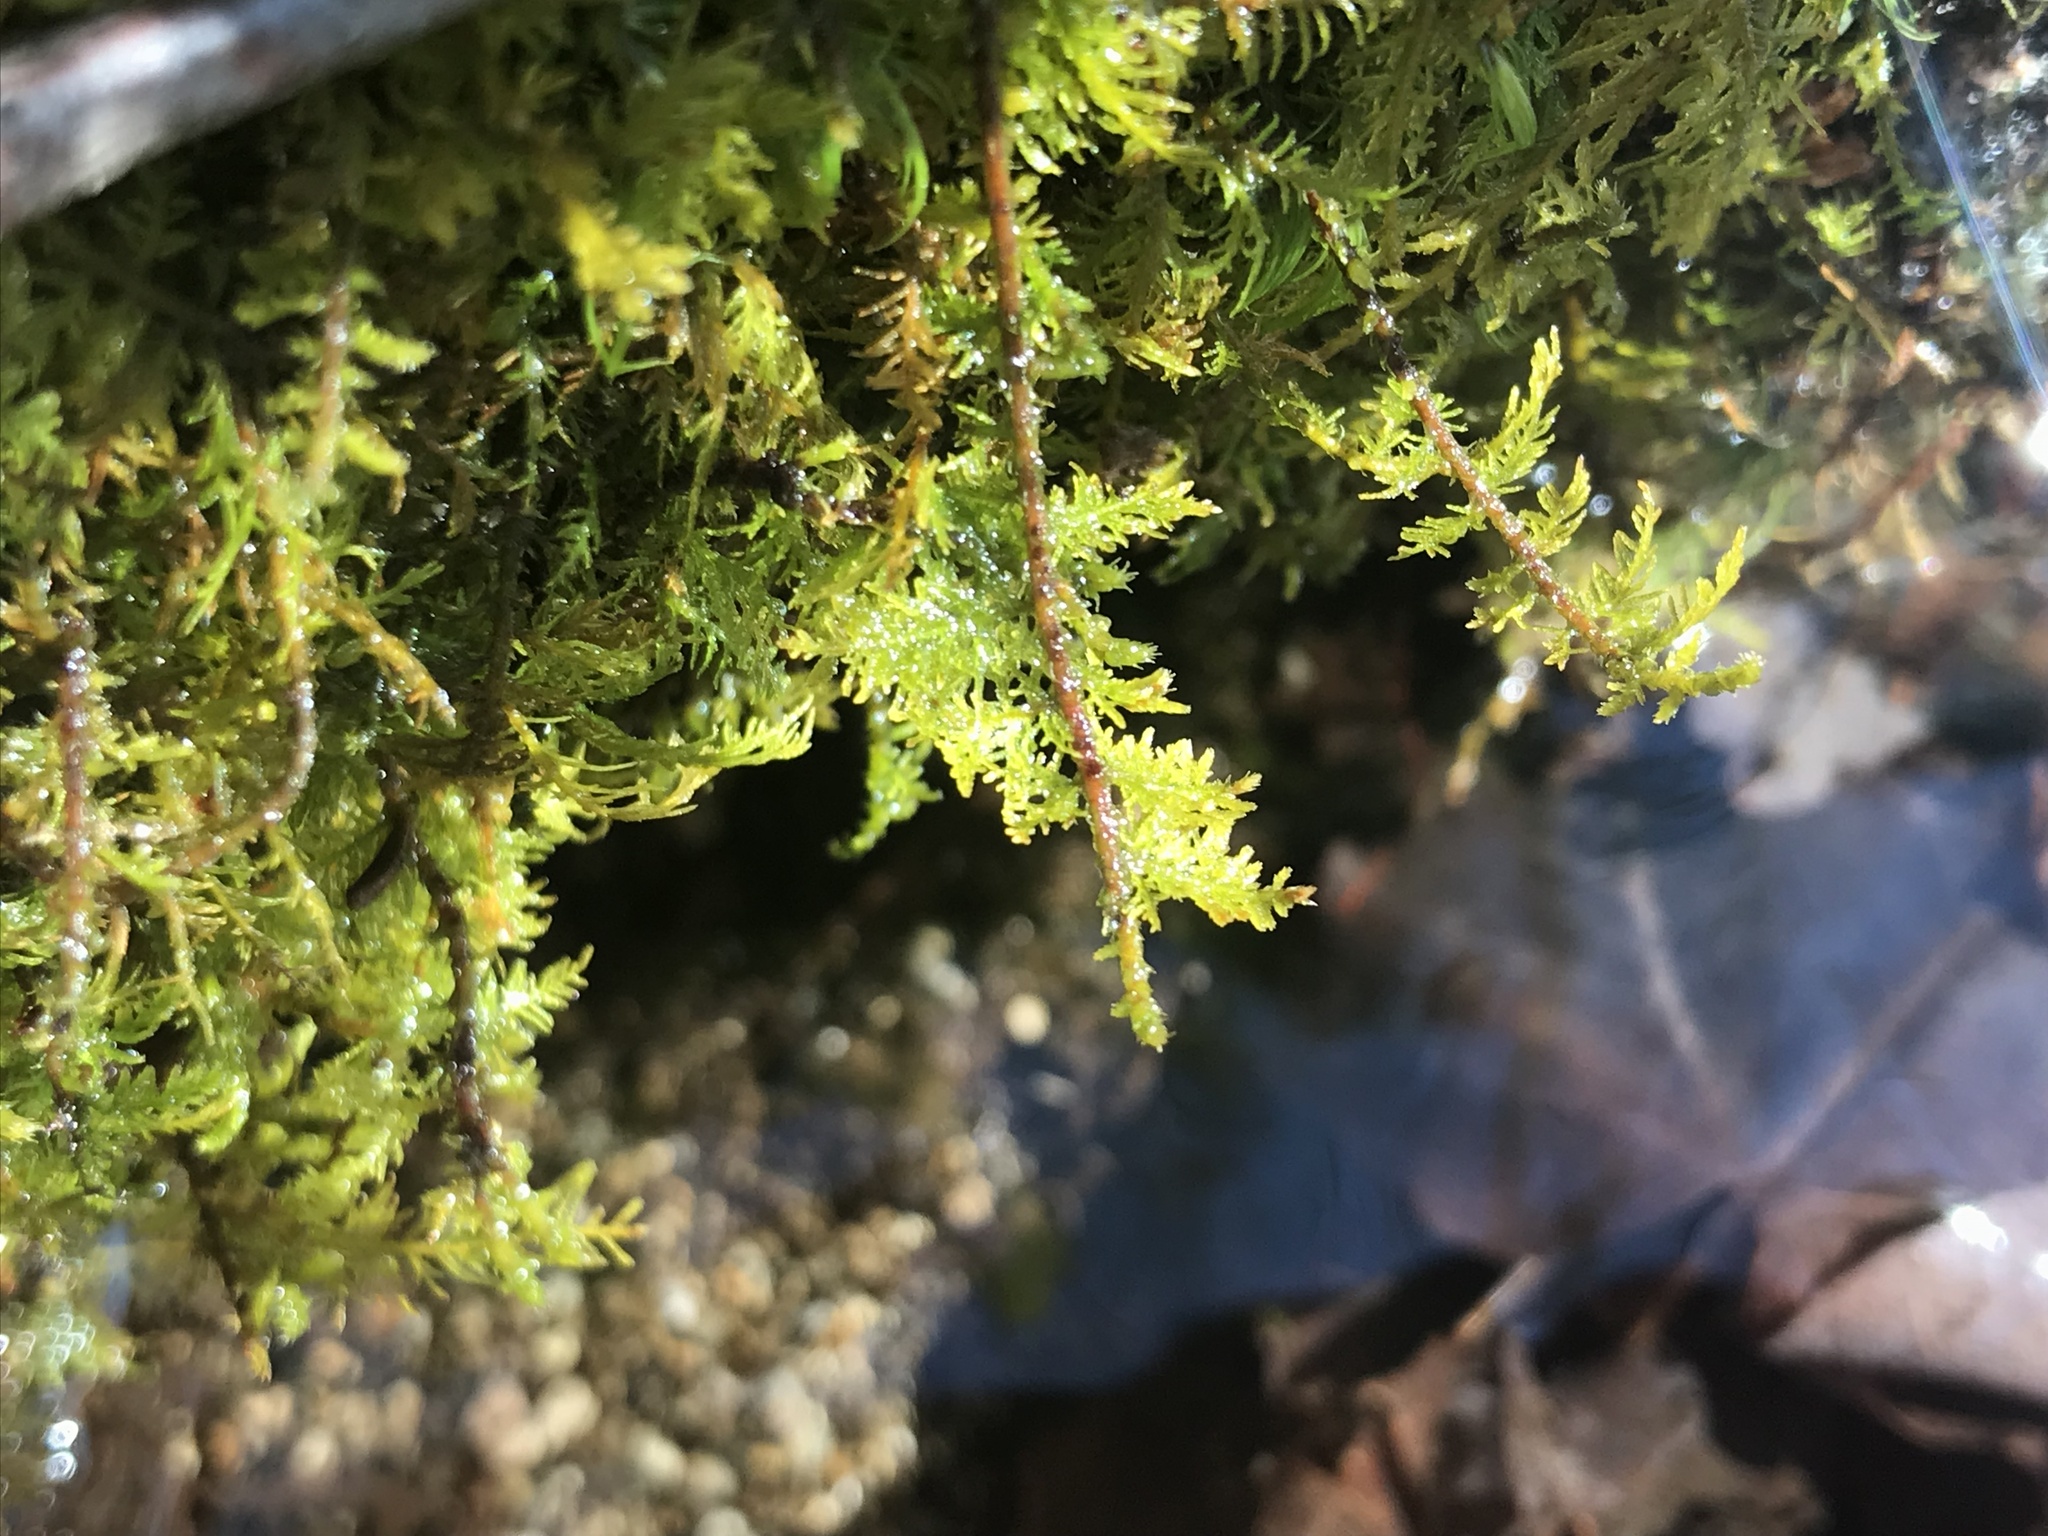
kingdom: Plantae
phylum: Bryophyta
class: Bryopsida
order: Hypnales
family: Thuidiaceae
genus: Thuidium
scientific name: Thuidium delicatulum
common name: Delicate fern moss
